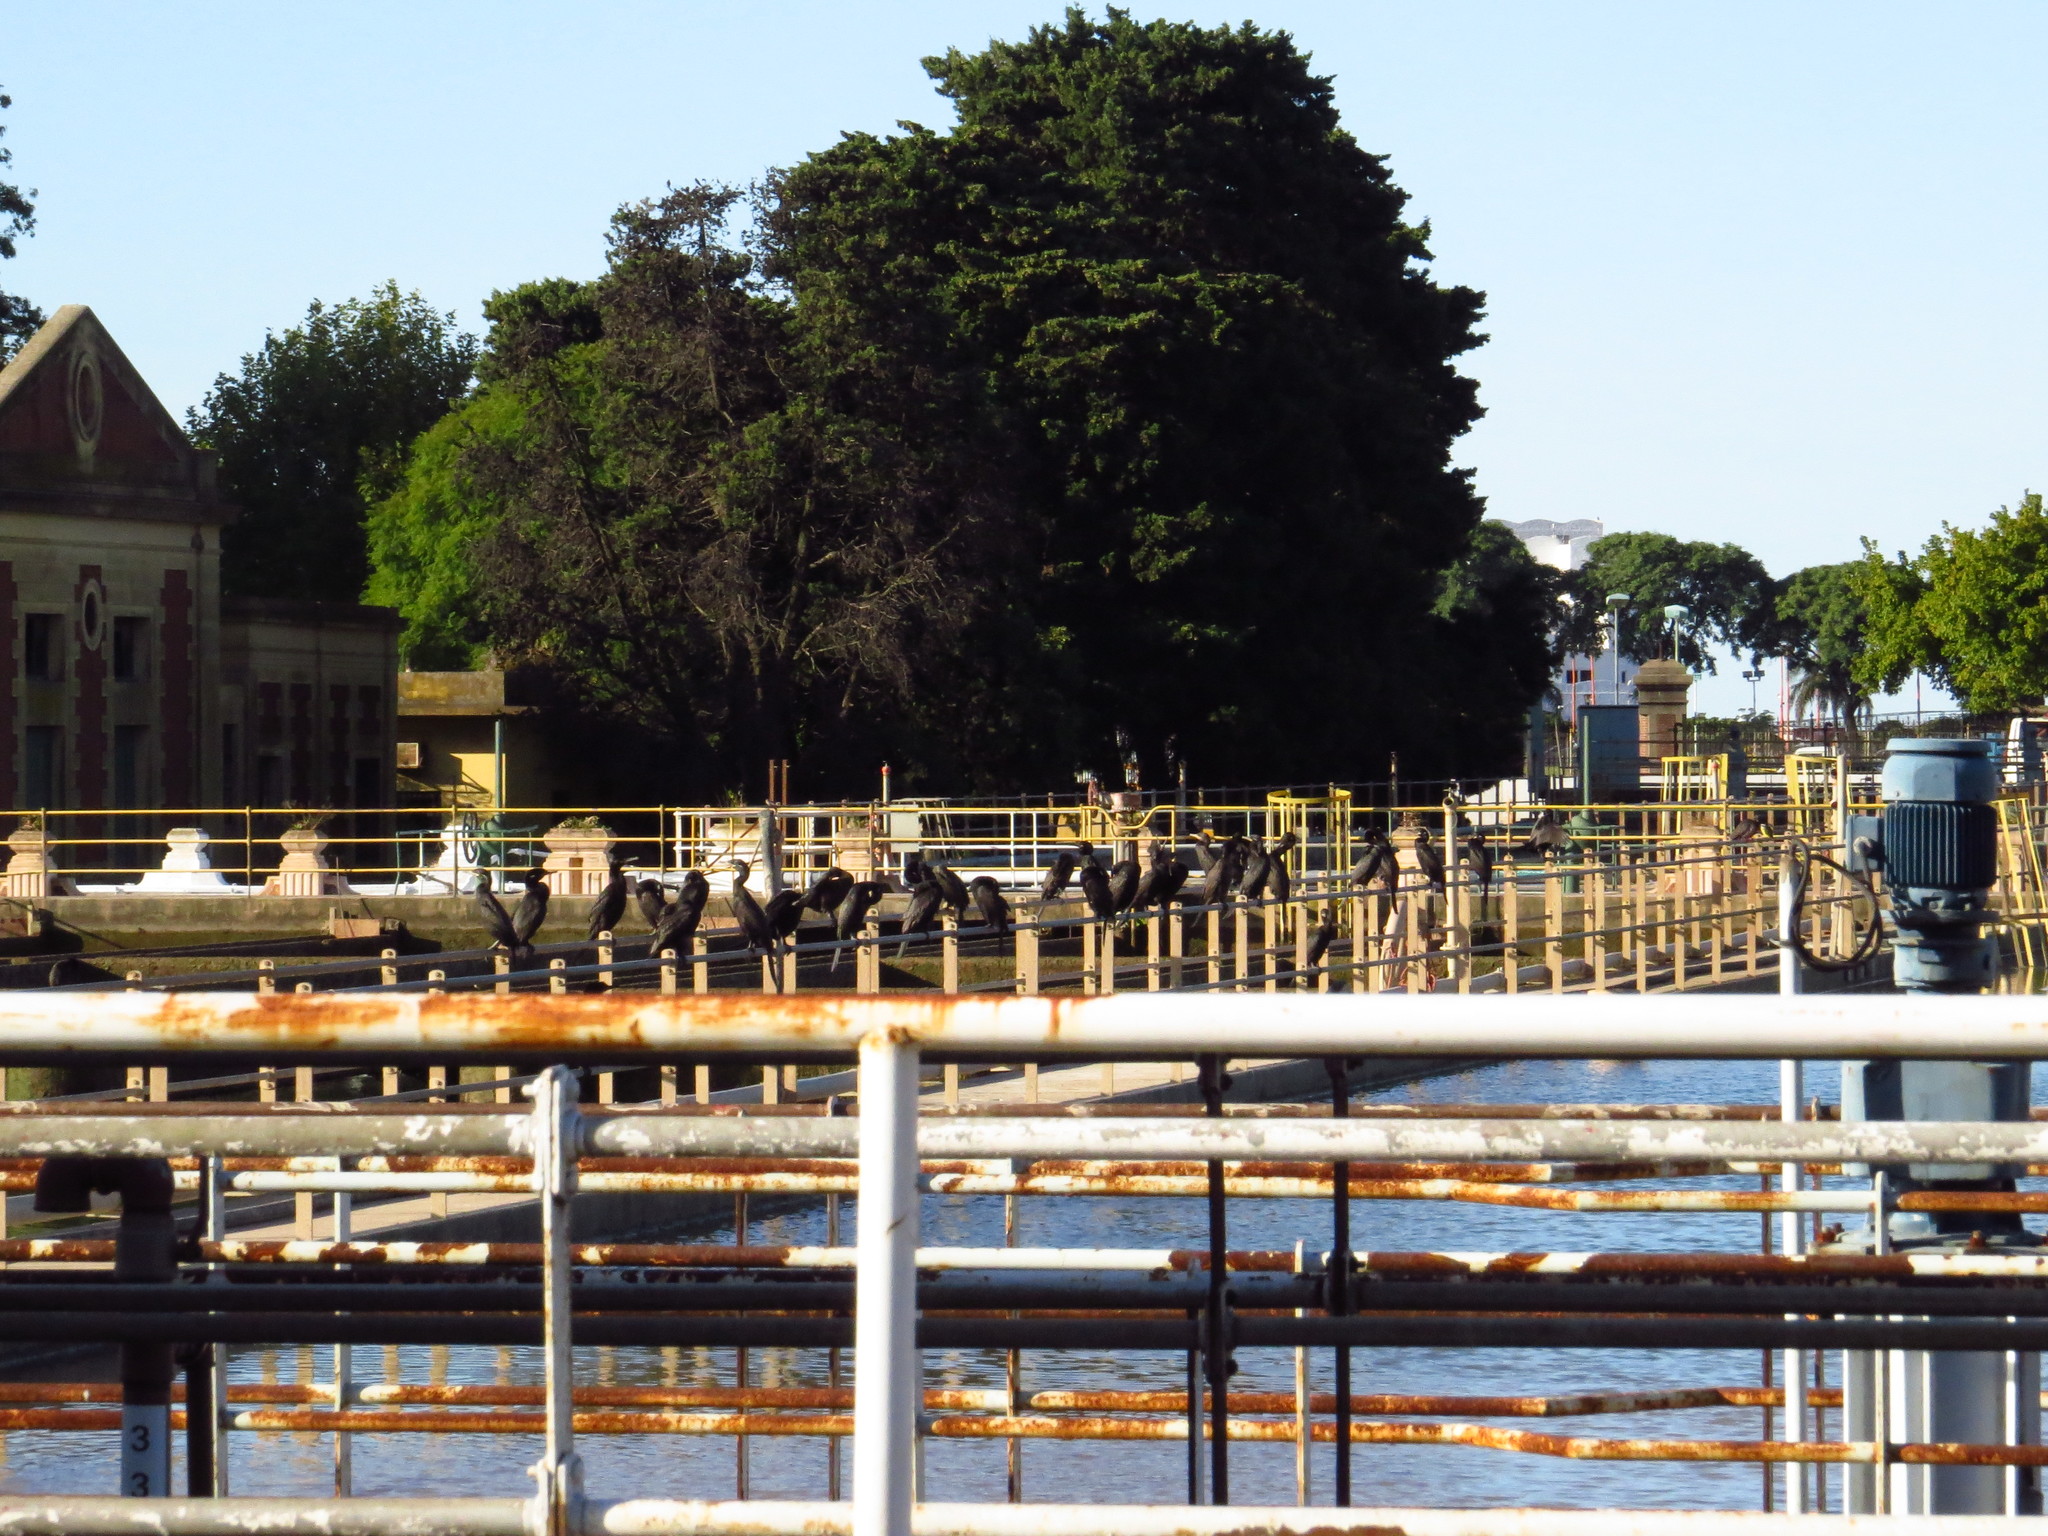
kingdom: Animalia
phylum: Chordata
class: Aves
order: Suliformes
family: Phalacrocoracidae
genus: Phalacrocorax
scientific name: Phalacrocorax brasilianus
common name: Neotropic cormorant
